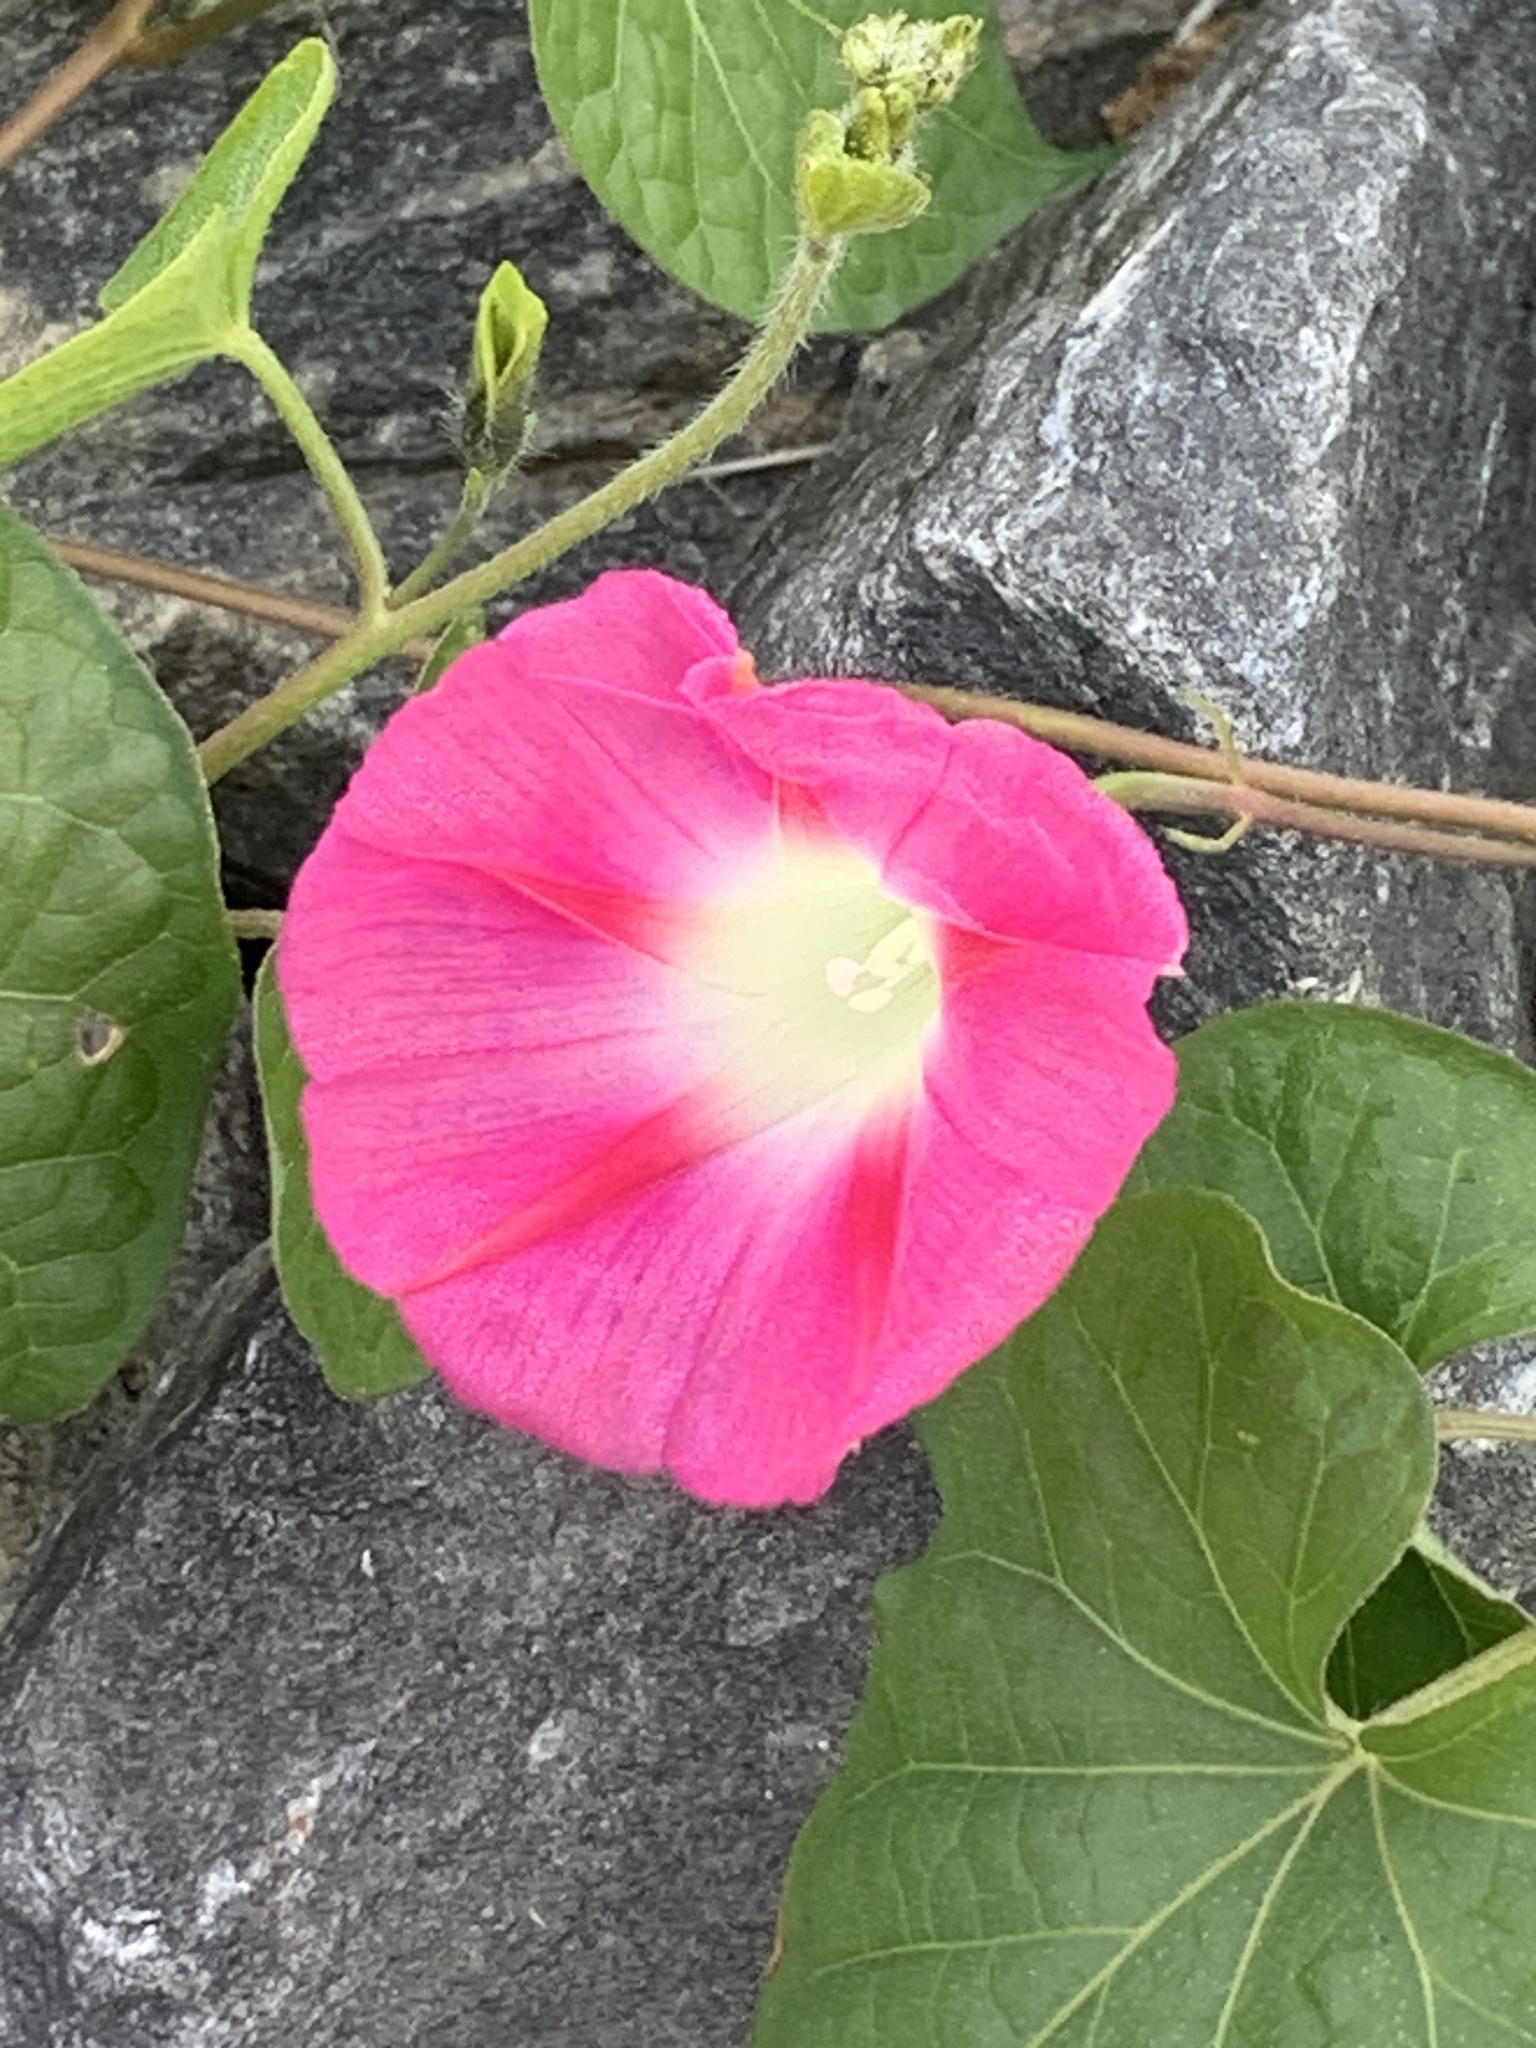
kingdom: Plantae
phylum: Tracheophyta
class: Magnoliopsida
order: Solanales
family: Convolvulaceae
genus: Ipomoea
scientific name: Ipomoea purpurea
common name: Common morning-glory
